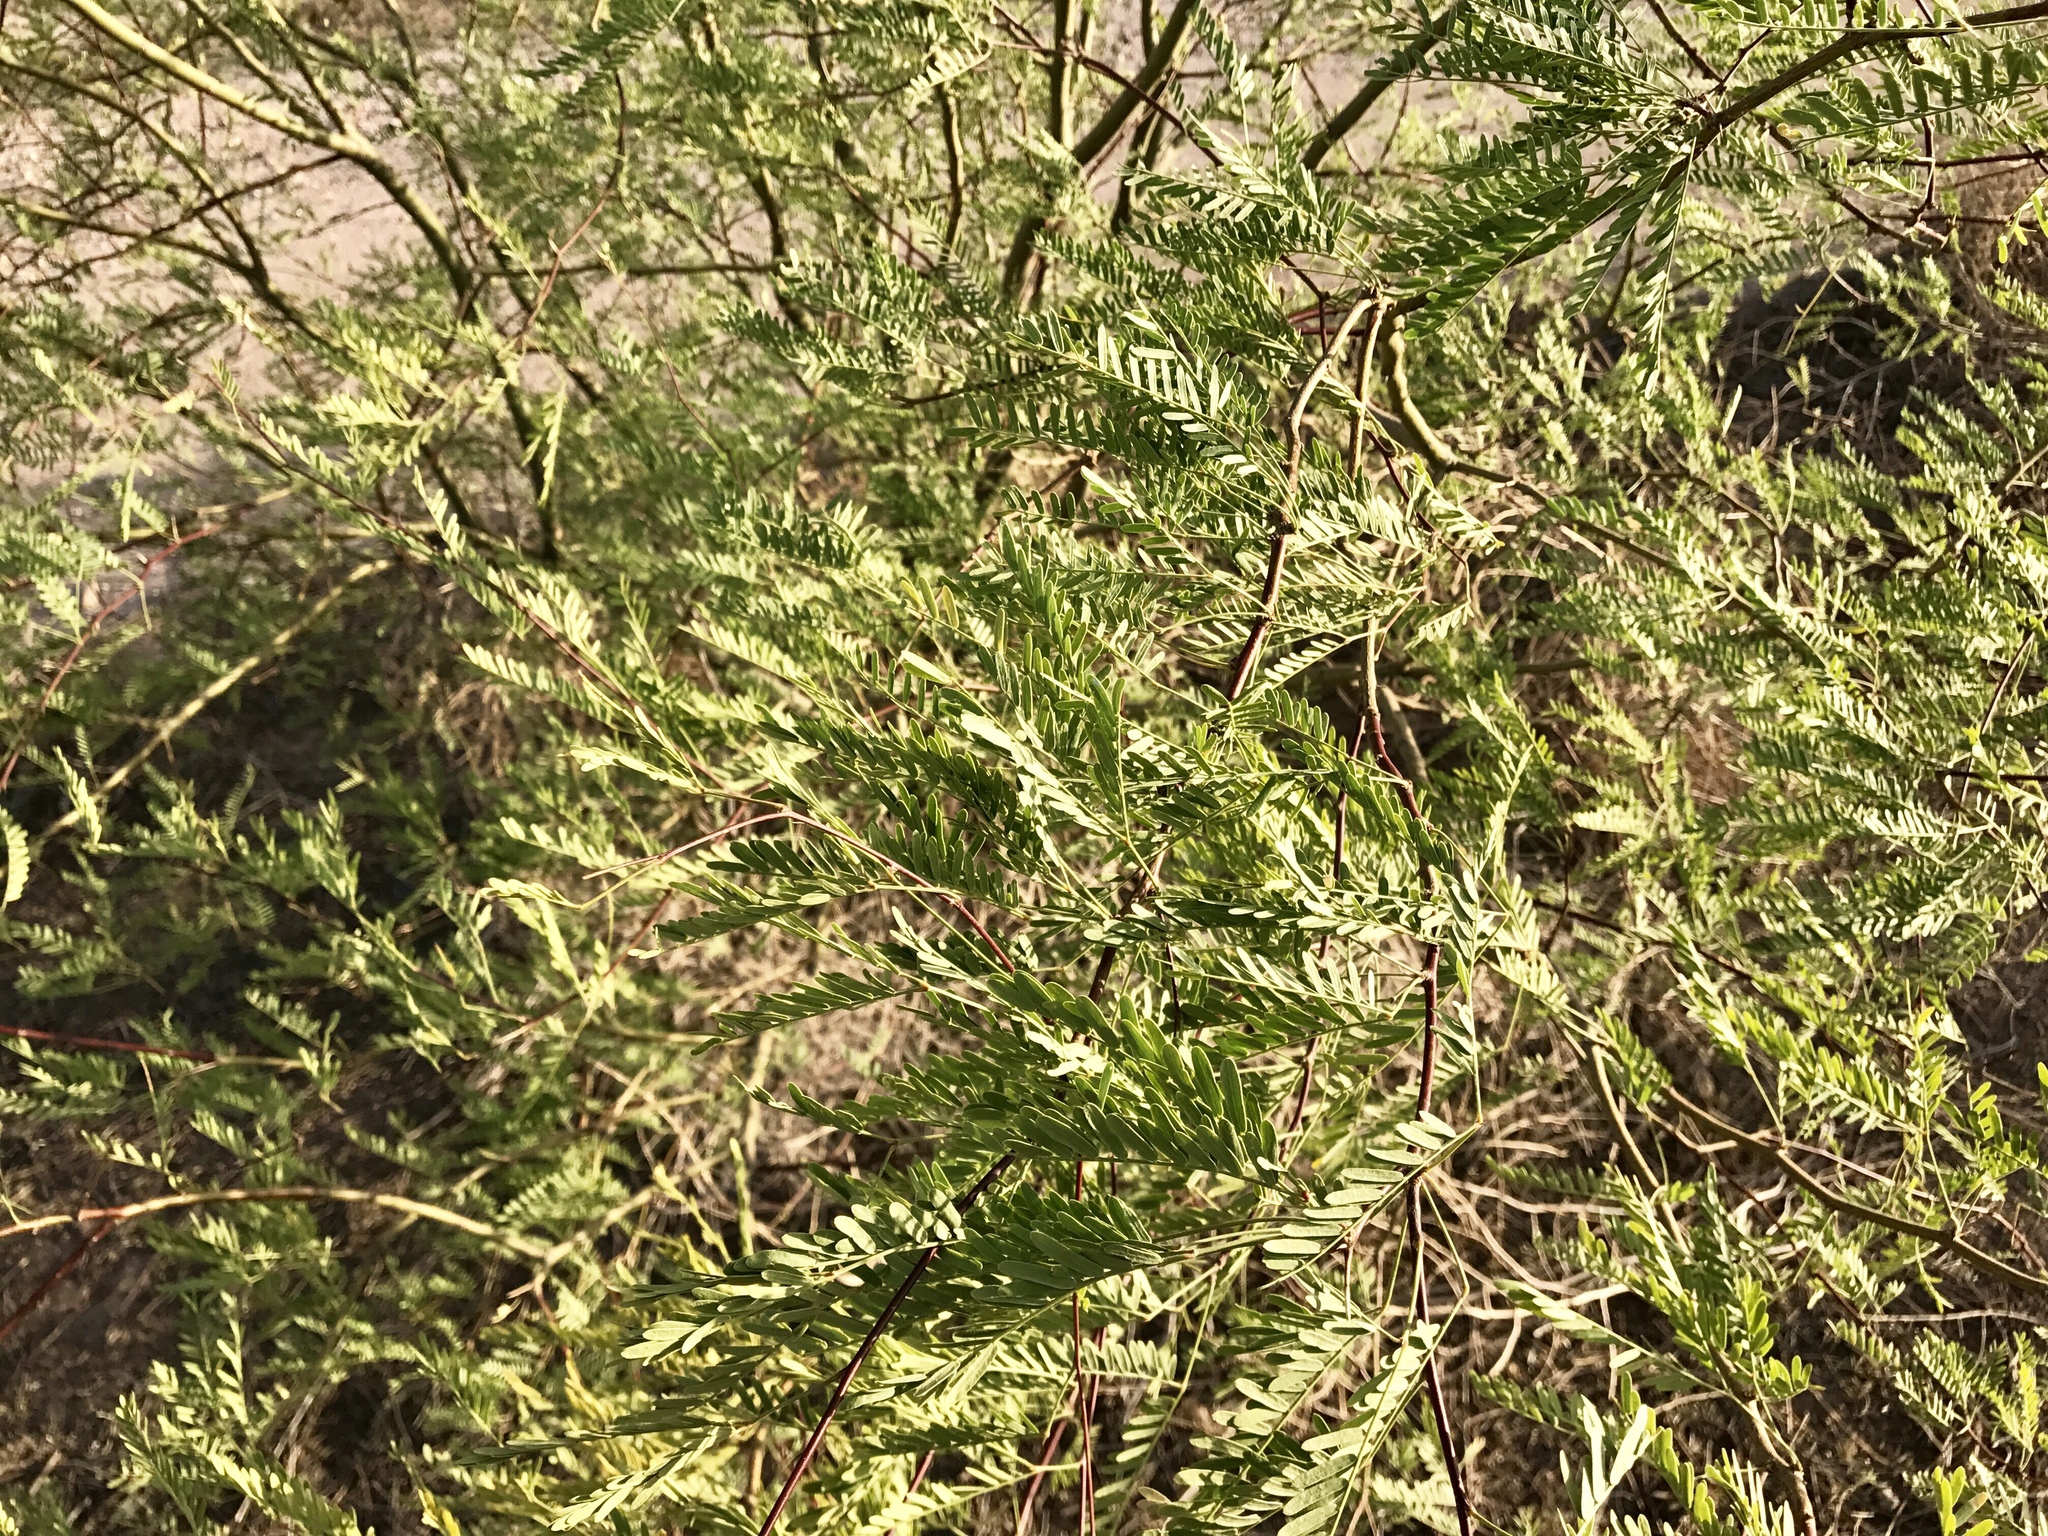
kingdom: Plantae
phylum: Tracheophyta
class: Magnoliopsida
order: Fabales
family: Fabaceae
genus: Prosopis
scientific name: Prosopis velutina
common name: Velvet mesquite
